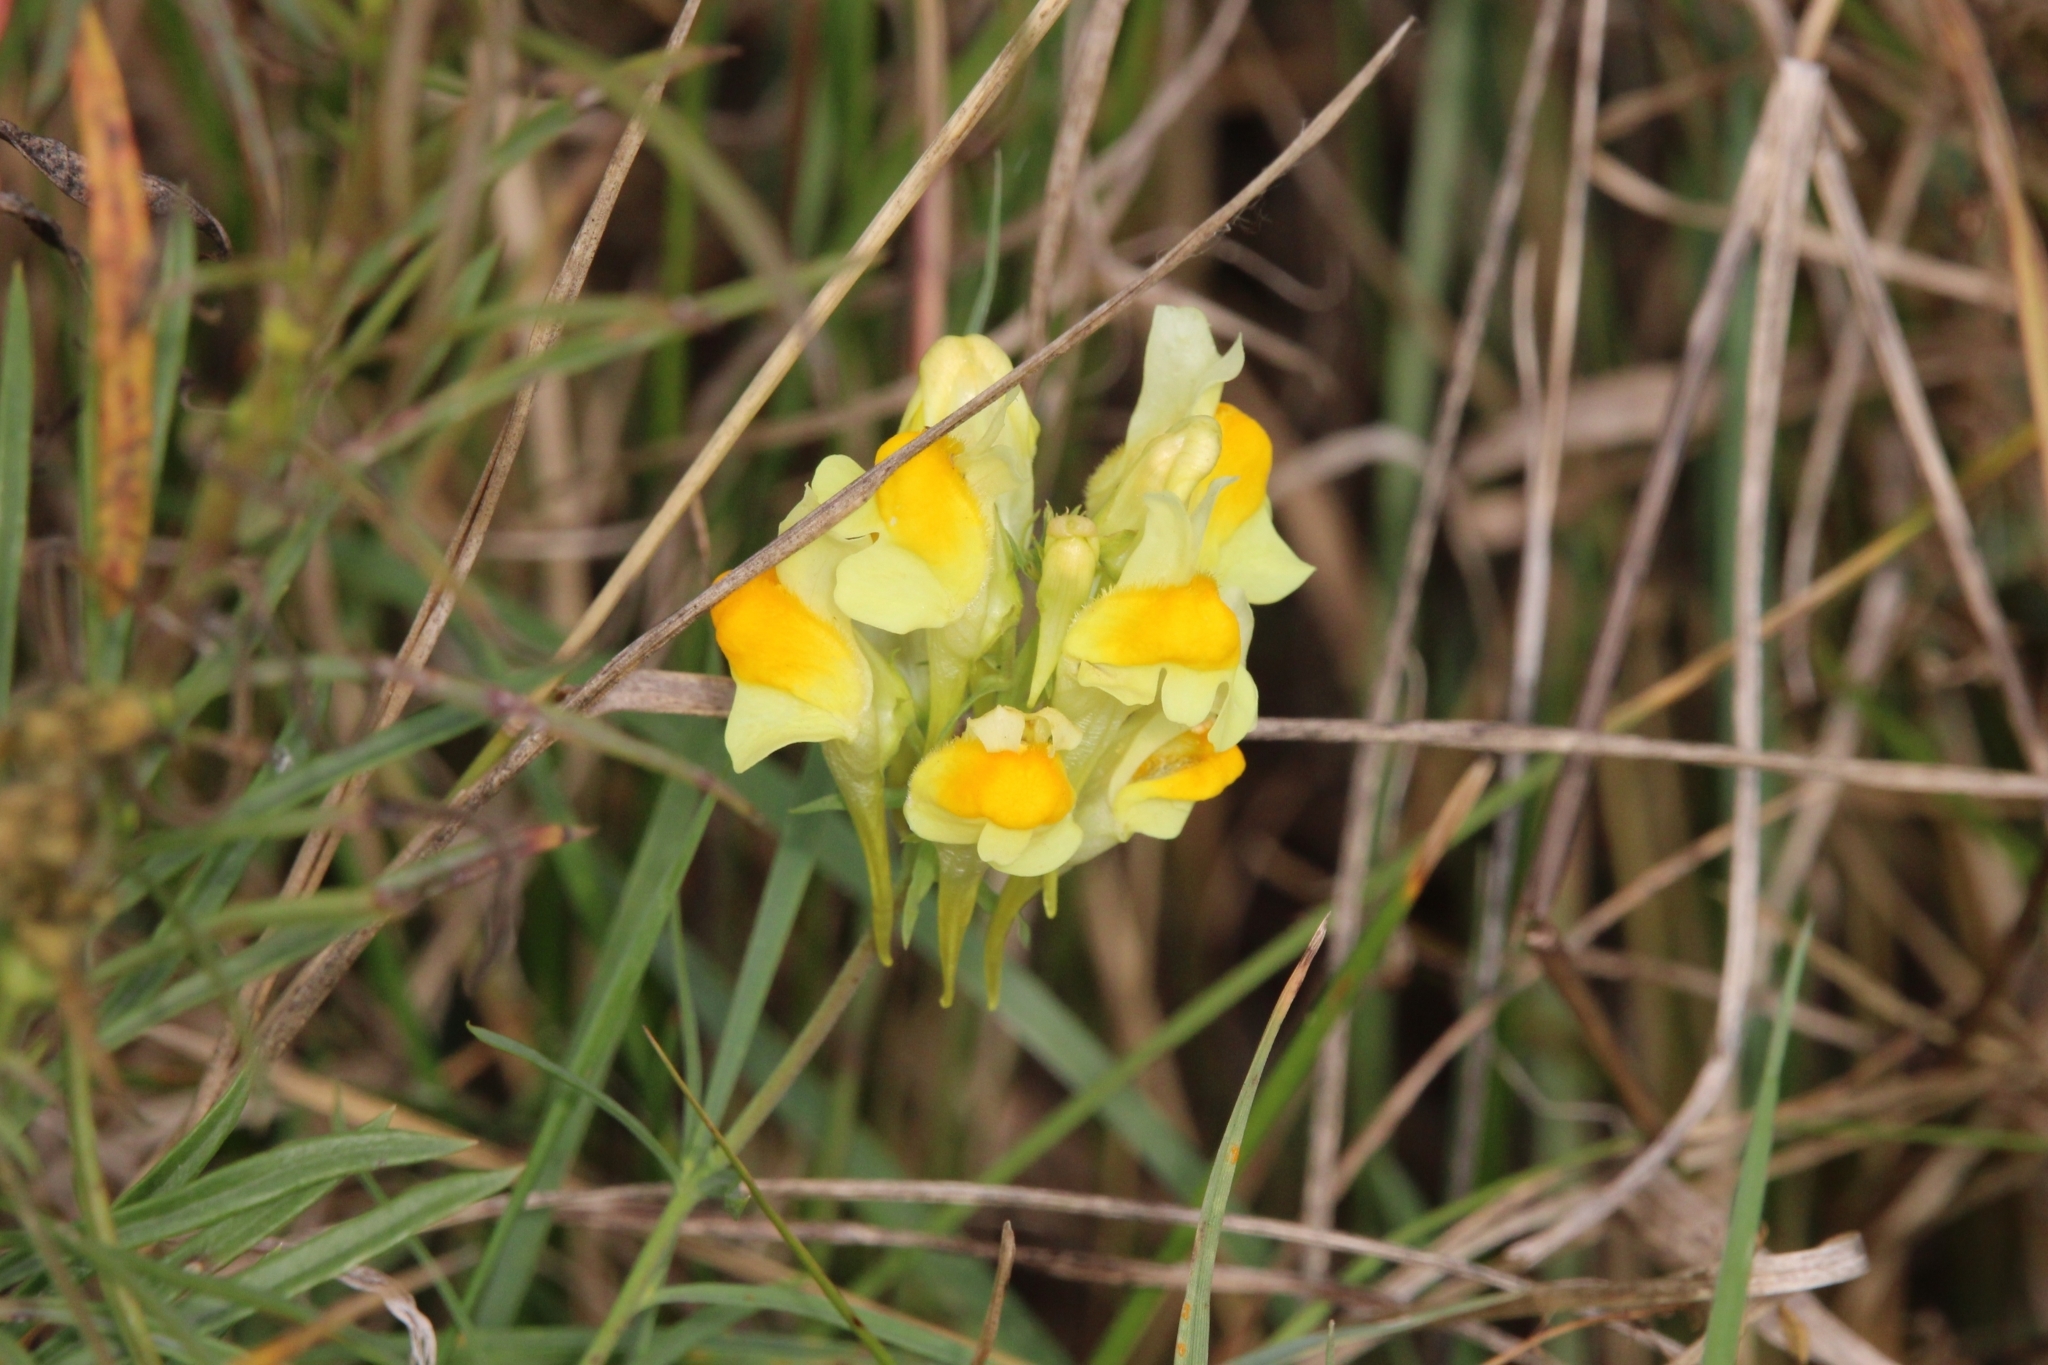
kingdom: Plantae
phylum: Tracheophyta
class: Magnoliopsida
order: Lamiales
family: Plantaginaceae
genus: Linaria
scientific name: Linaria vulgaris
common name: Butter and eggs
